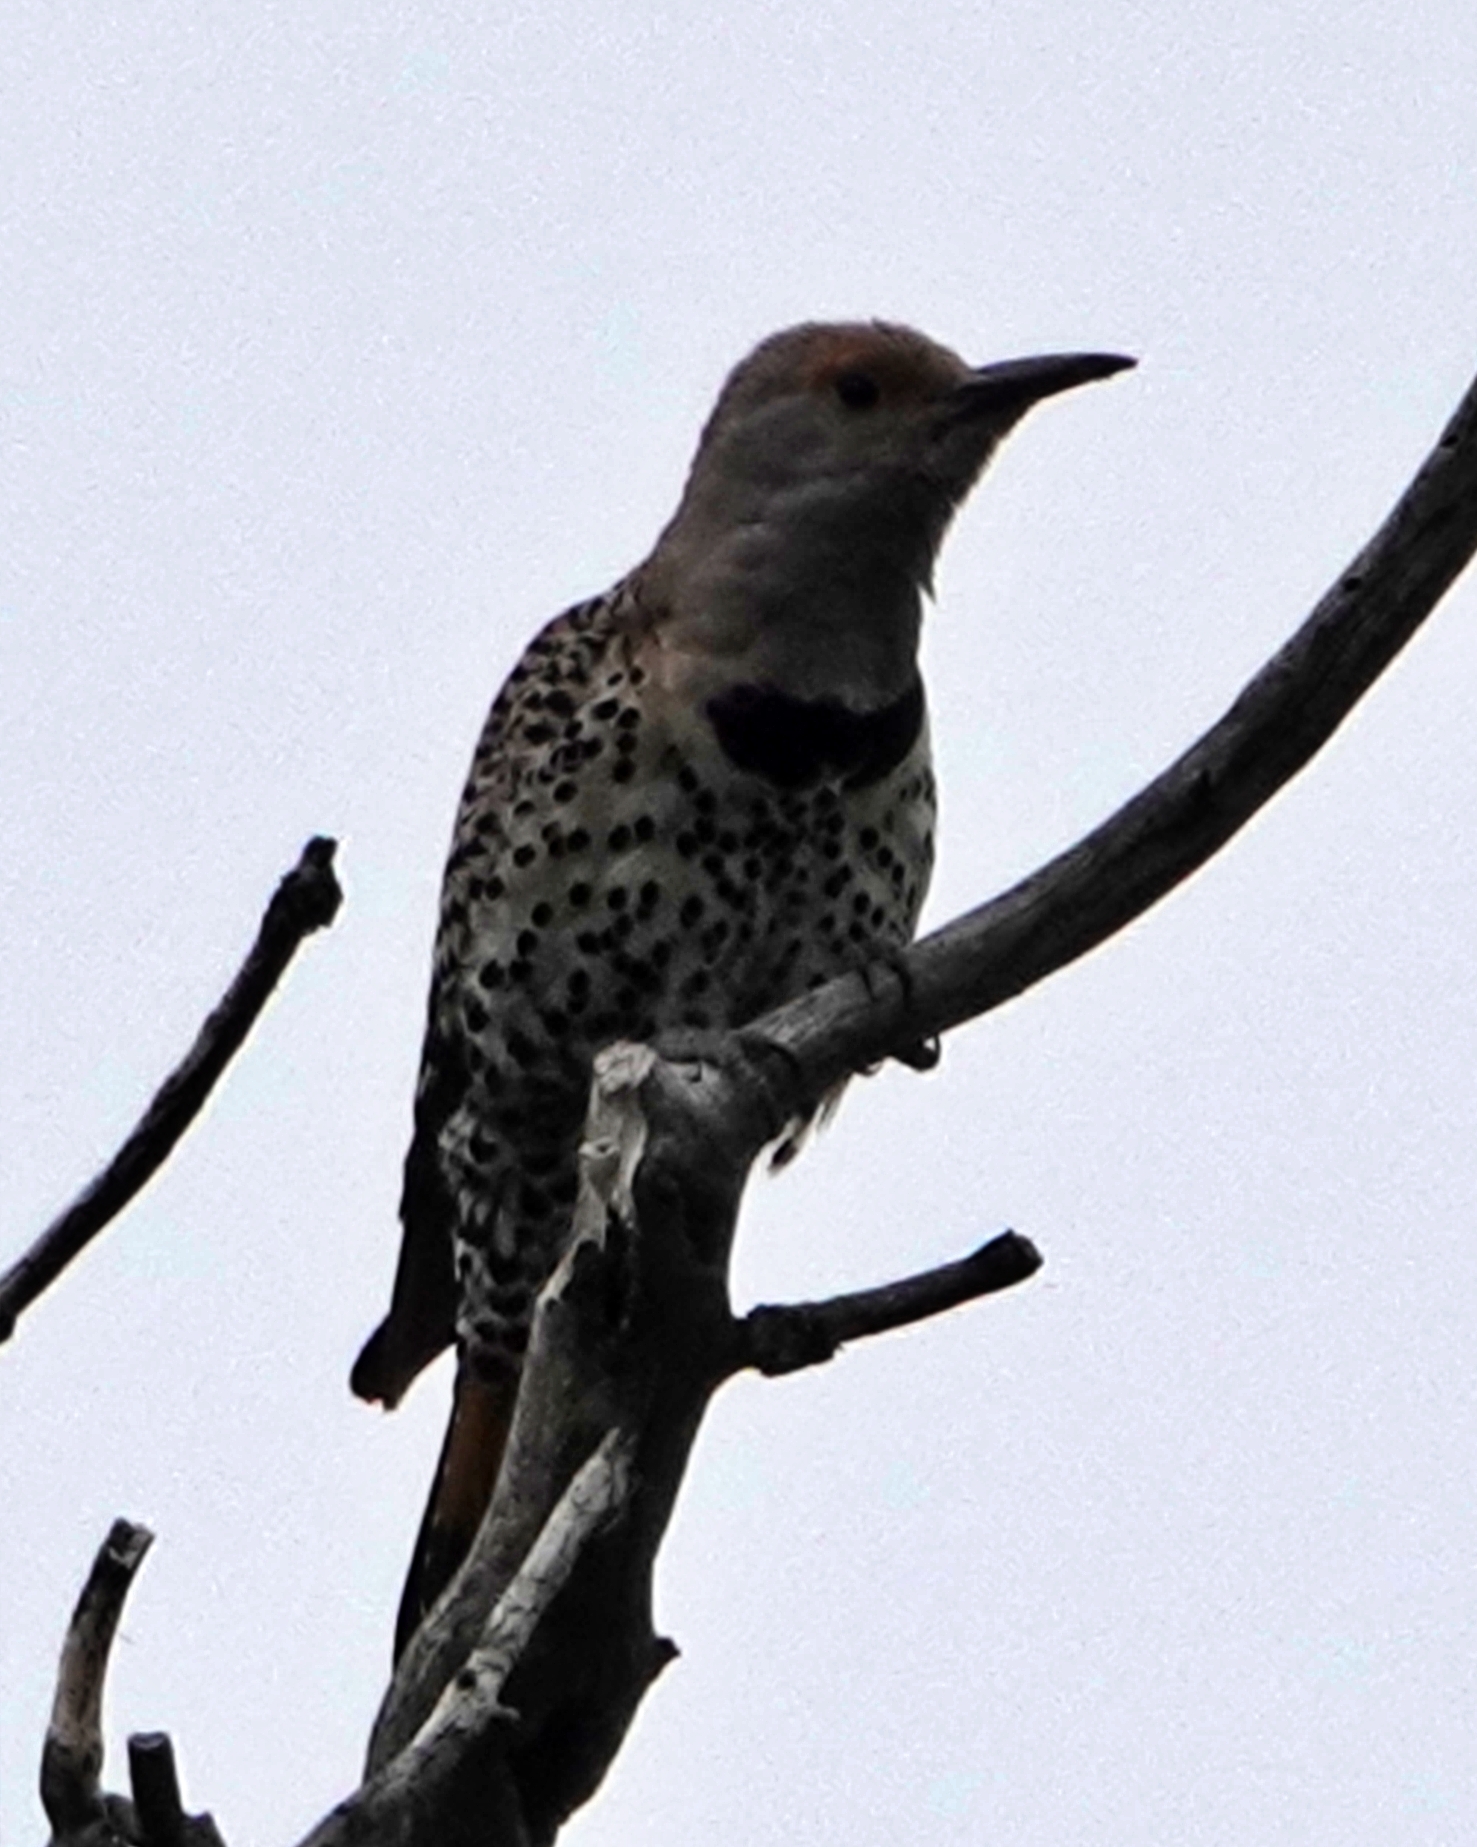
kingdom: Animalia
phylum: Chordata
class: Aves
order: Piciformes
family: Picidae
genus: Colaptes
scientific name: Colaptes auratus
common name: Northern flicker
